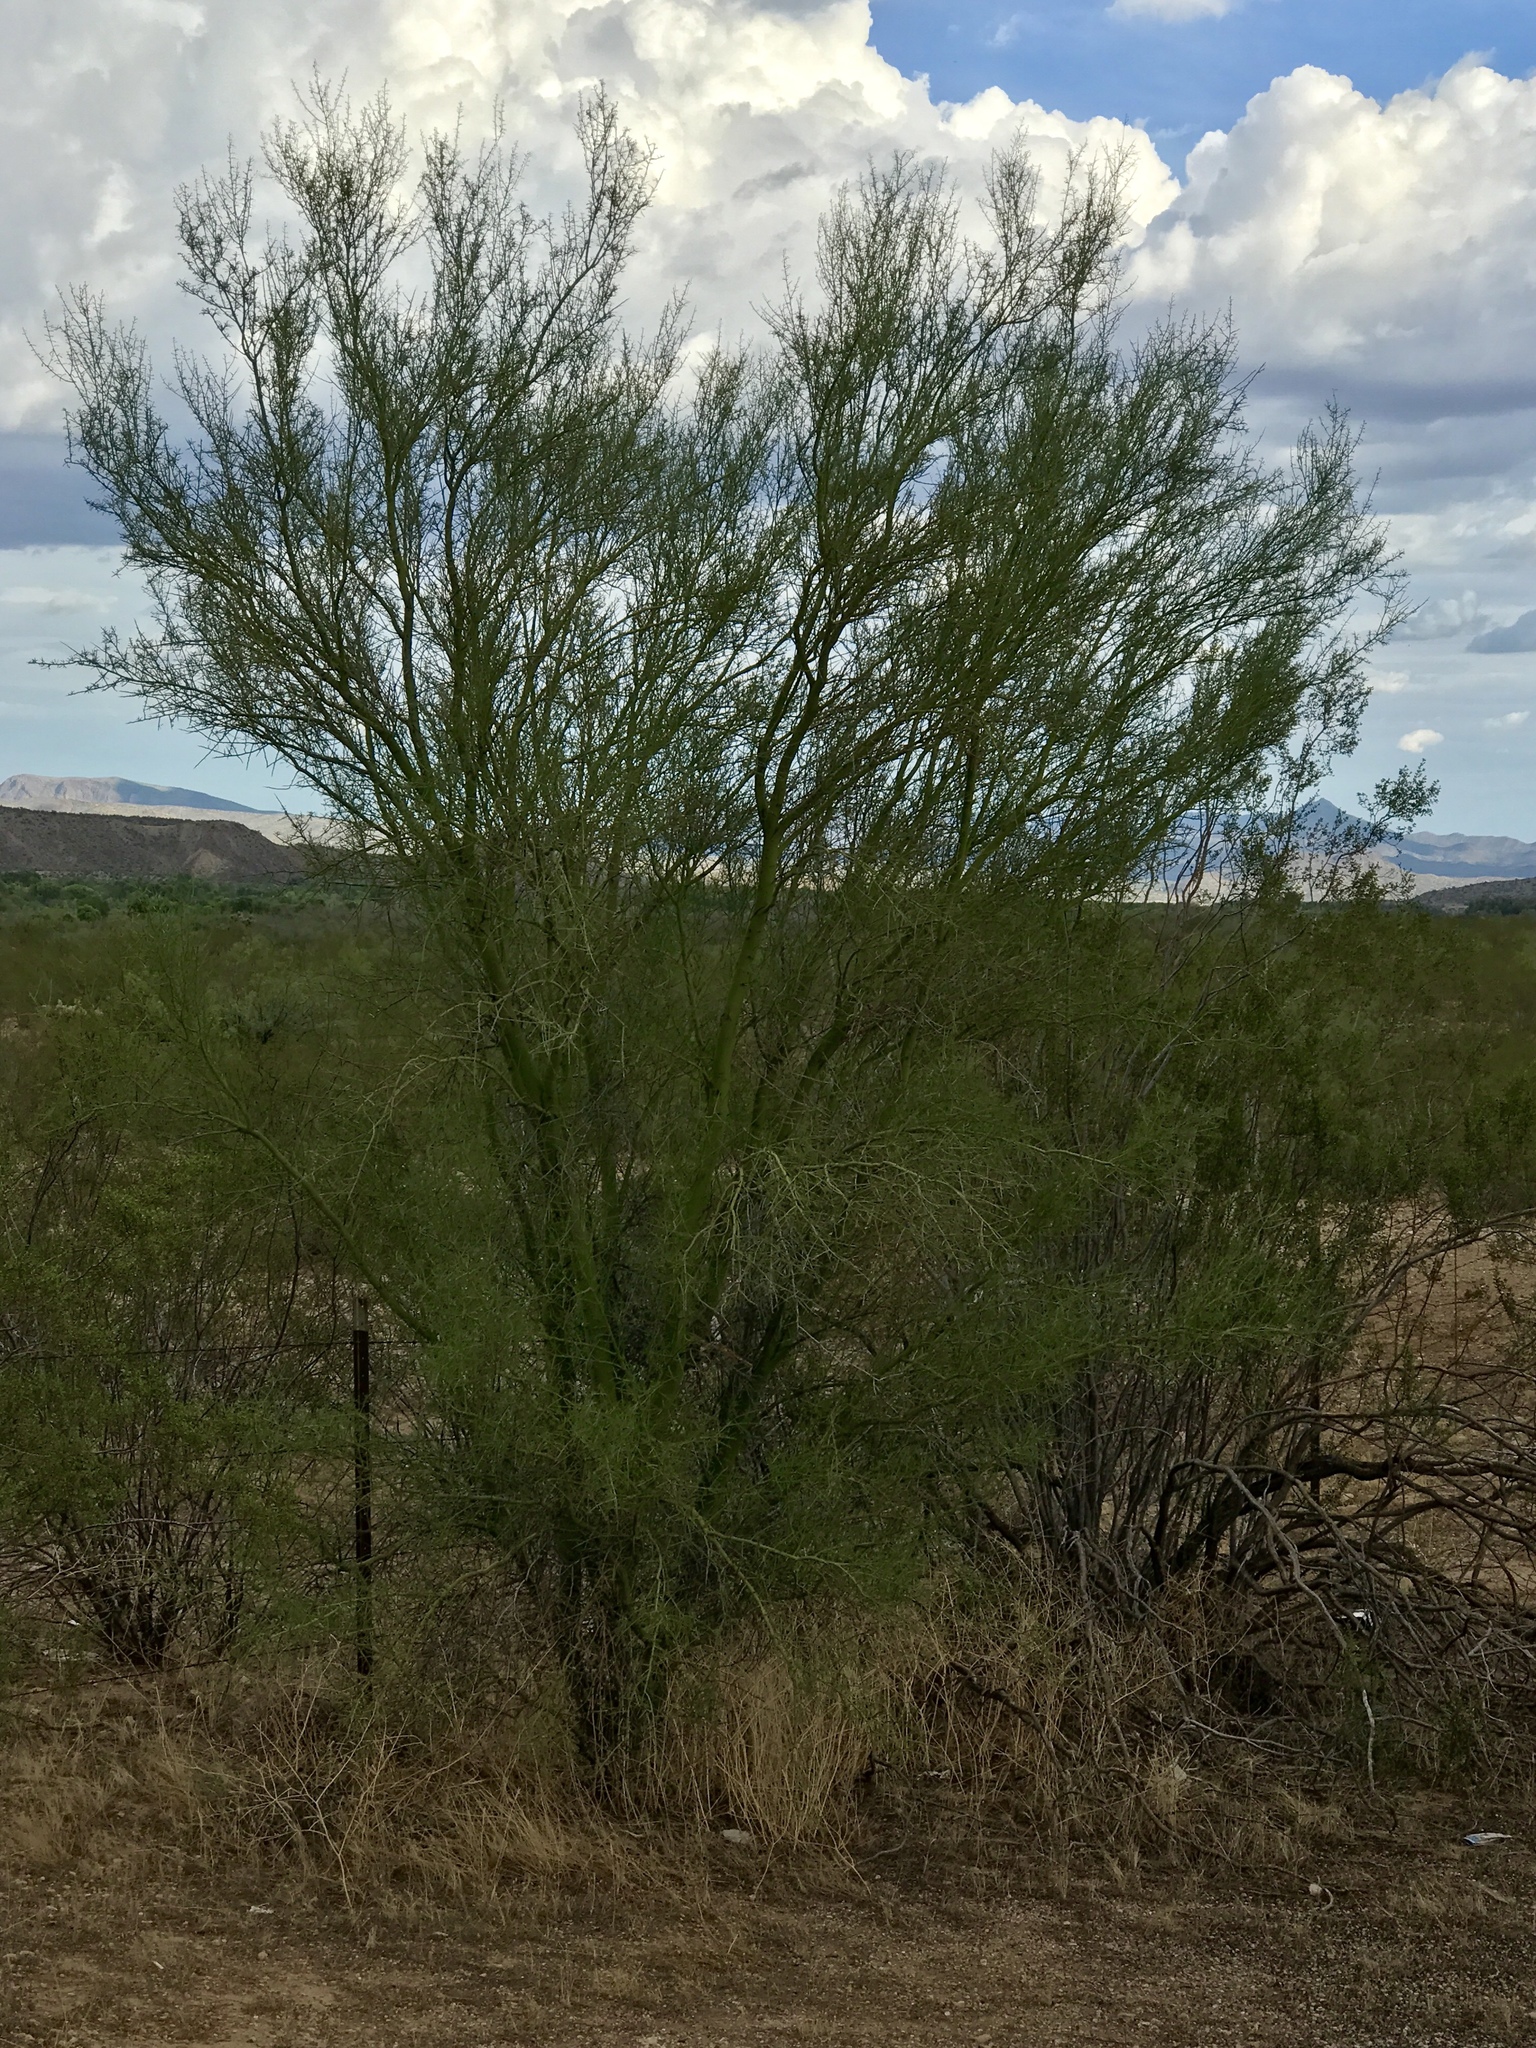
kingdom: Plantae
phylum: Tracheophyta
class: Magnoliopsida
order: Fabales
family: Fabaceae
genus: Parkinsonia
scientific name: Parkinsonia florida
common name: Blue paloverde
